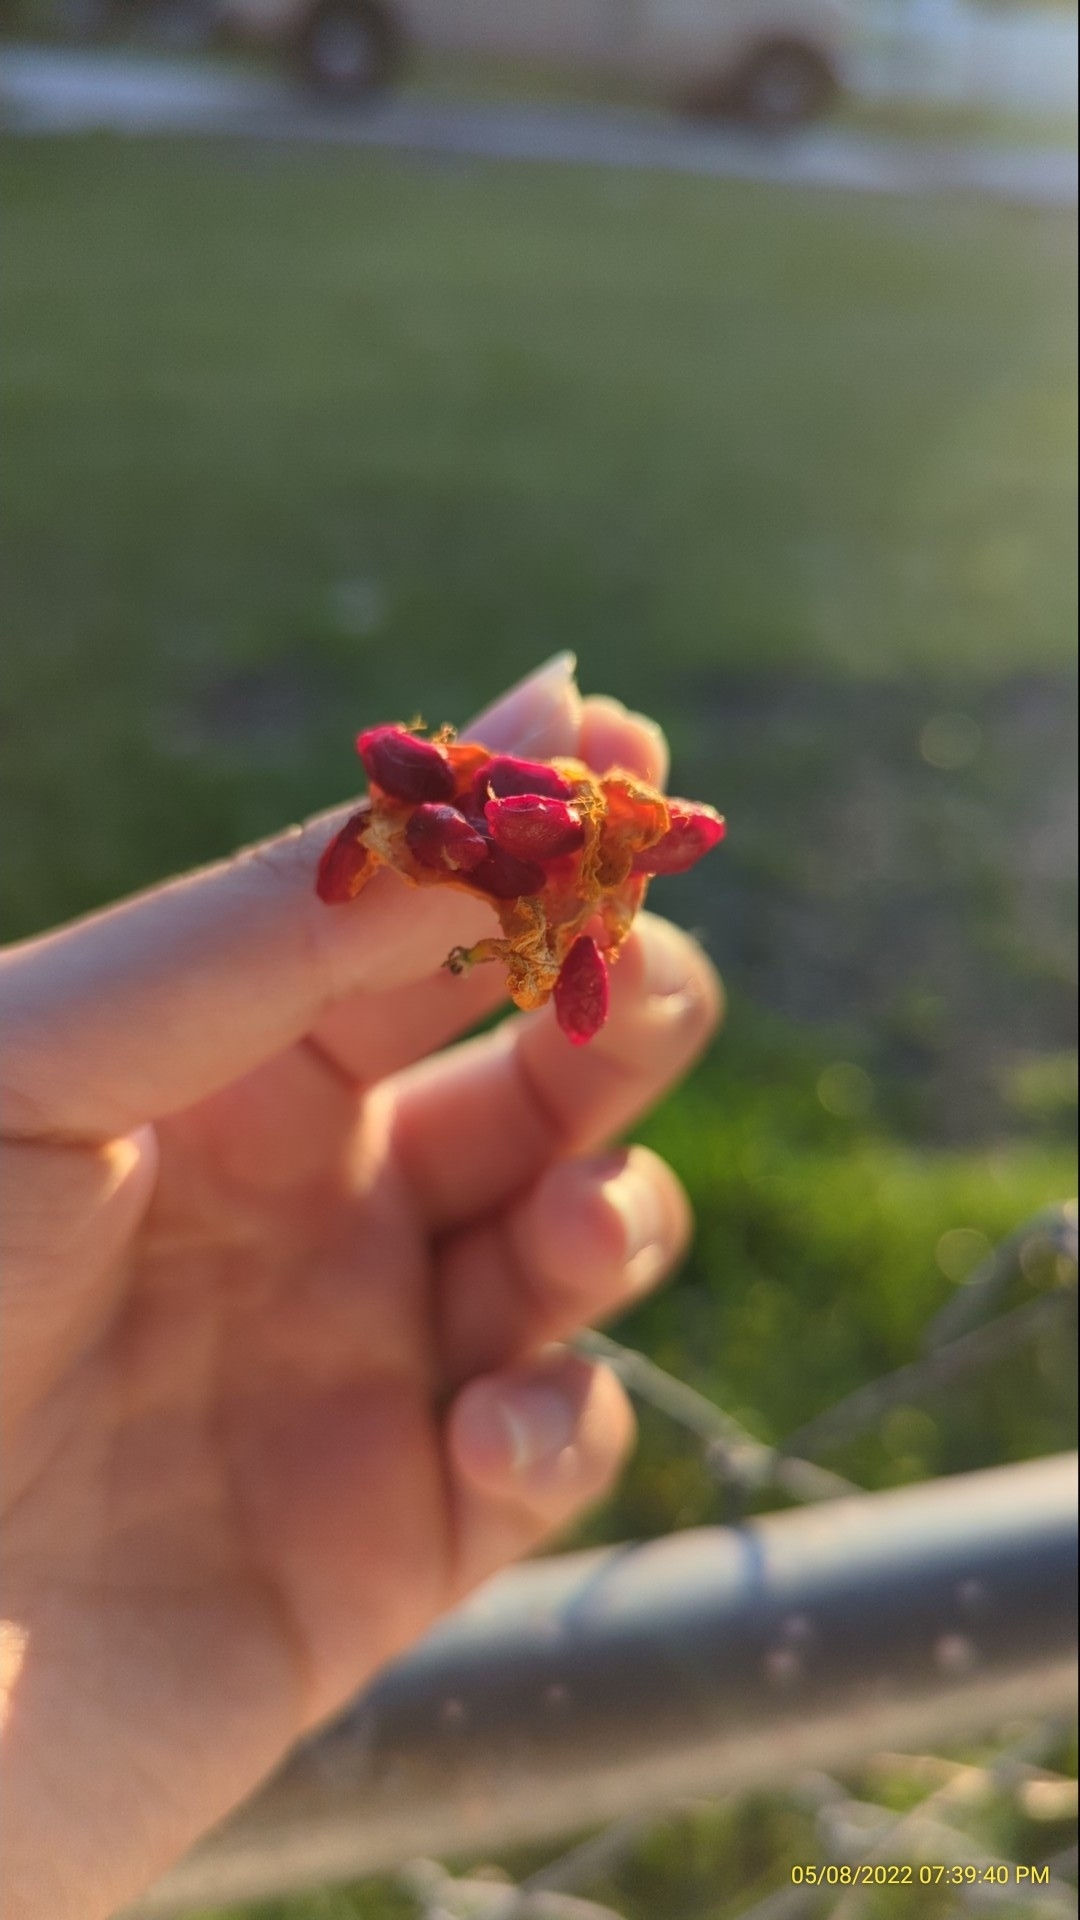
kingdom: Plantae
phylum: Tracheophyta
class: Magnoliopsida
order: Cucurbitales
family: Cucurbitaceae
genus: Momordica
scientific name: Momordica charantia
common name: Balsampear
